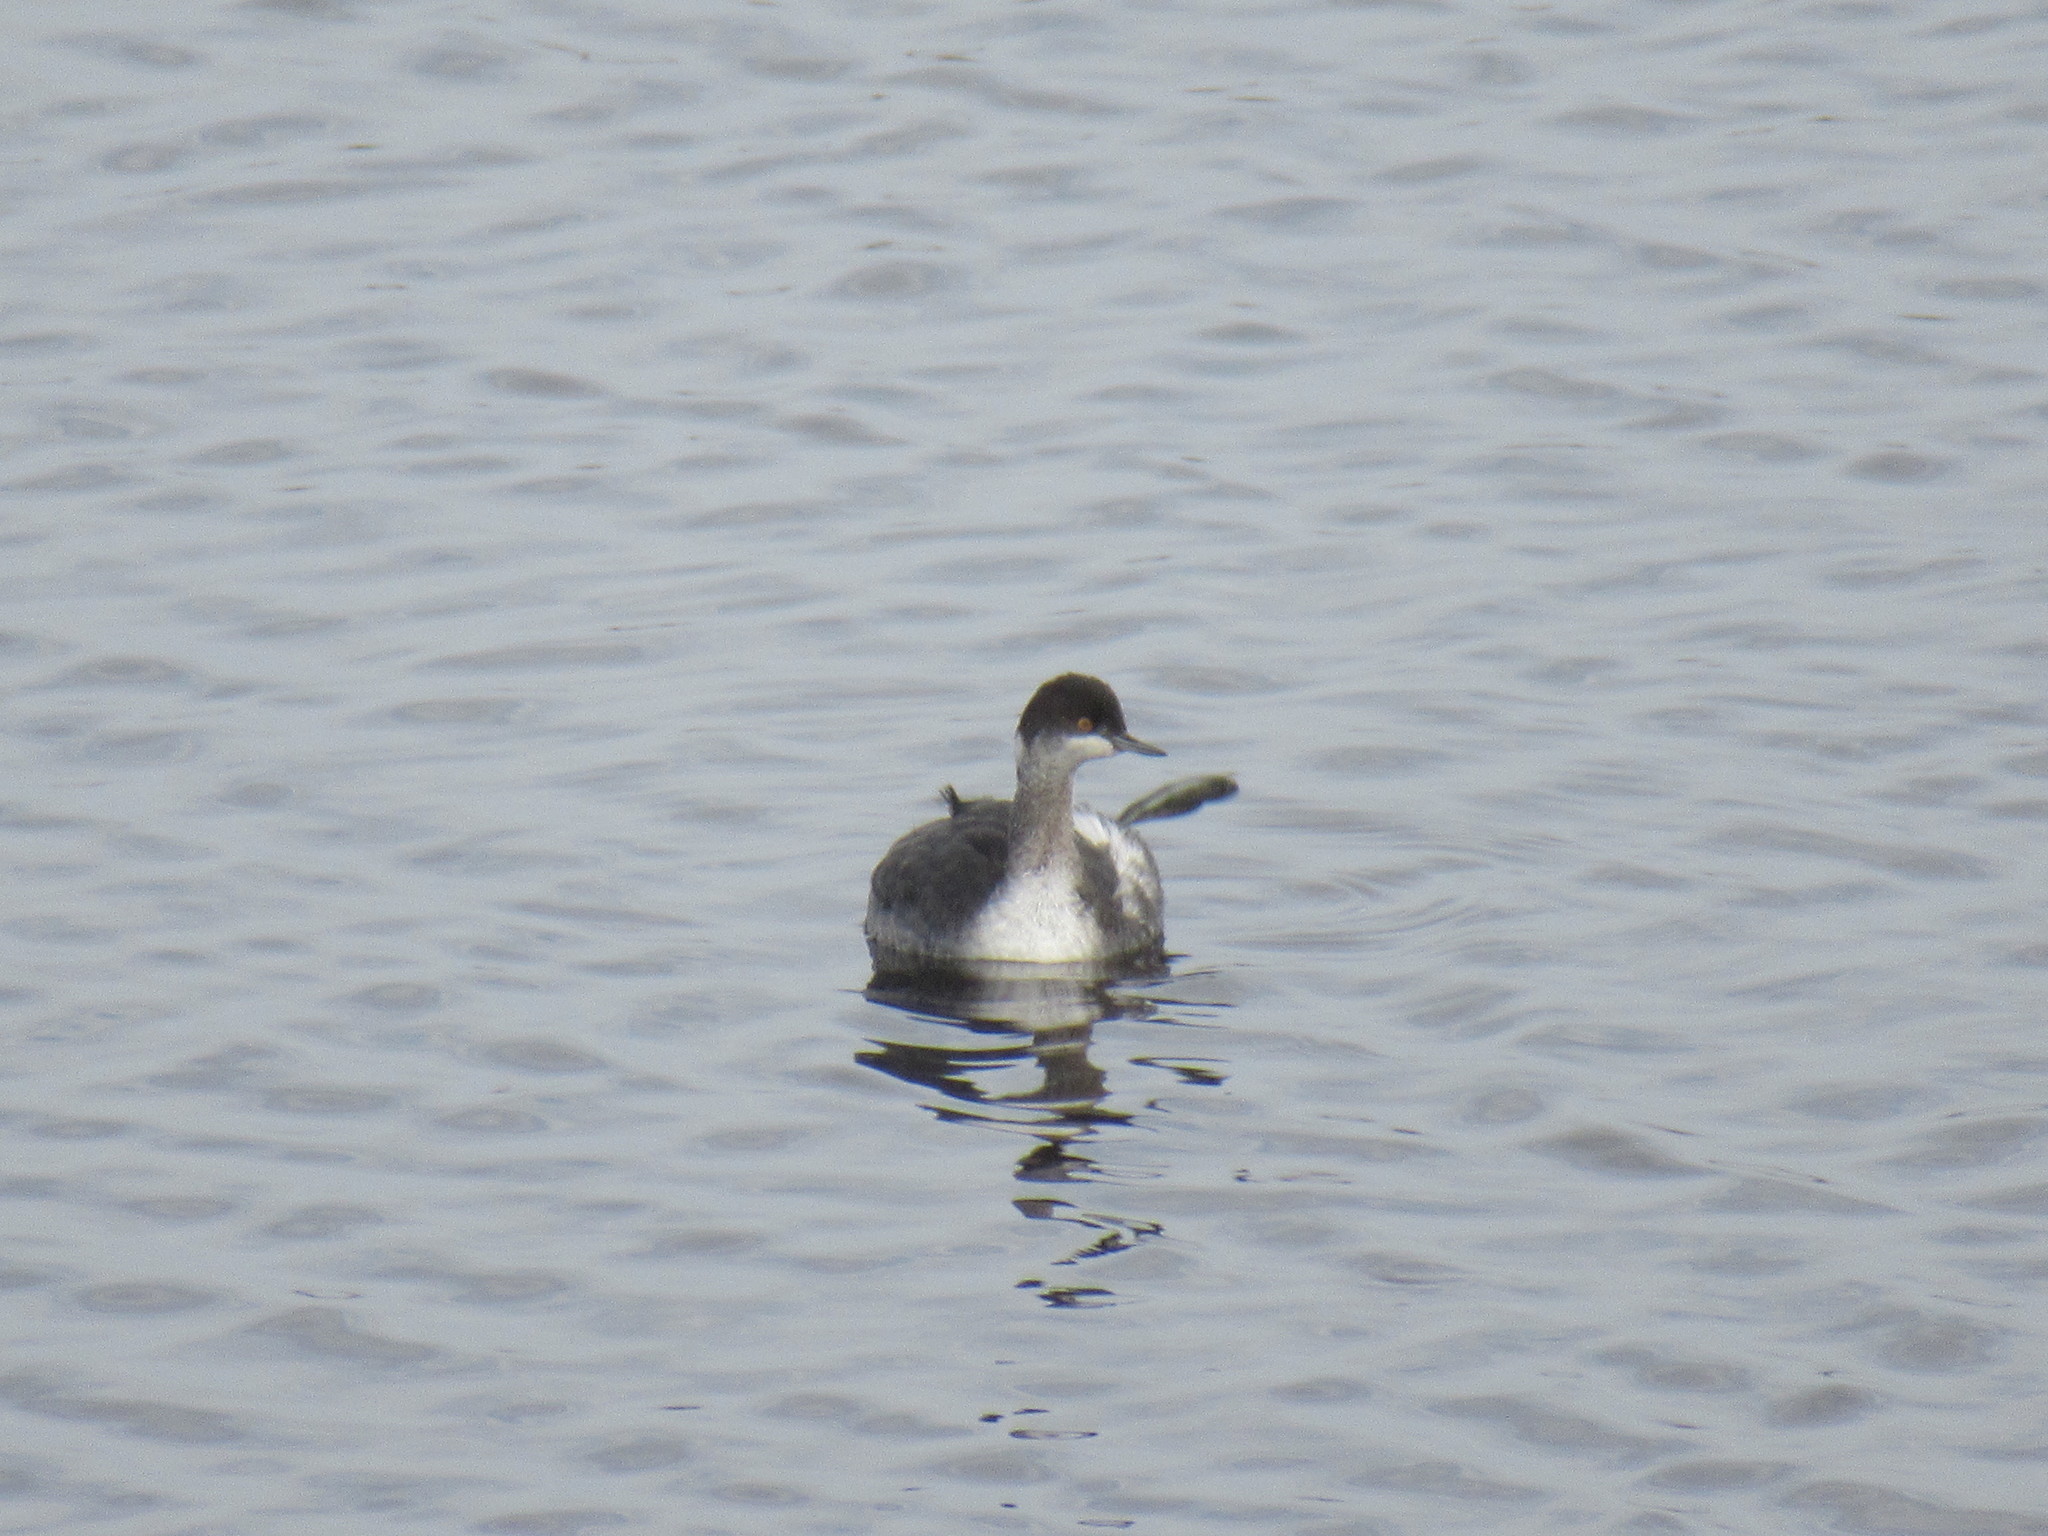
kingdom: Animalia
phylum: Chordata
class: Aves
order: Podicipediformes
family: Podicipedidae
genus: Podiceps
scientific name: Podiceps nigricollis
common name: Black-necked grebe
